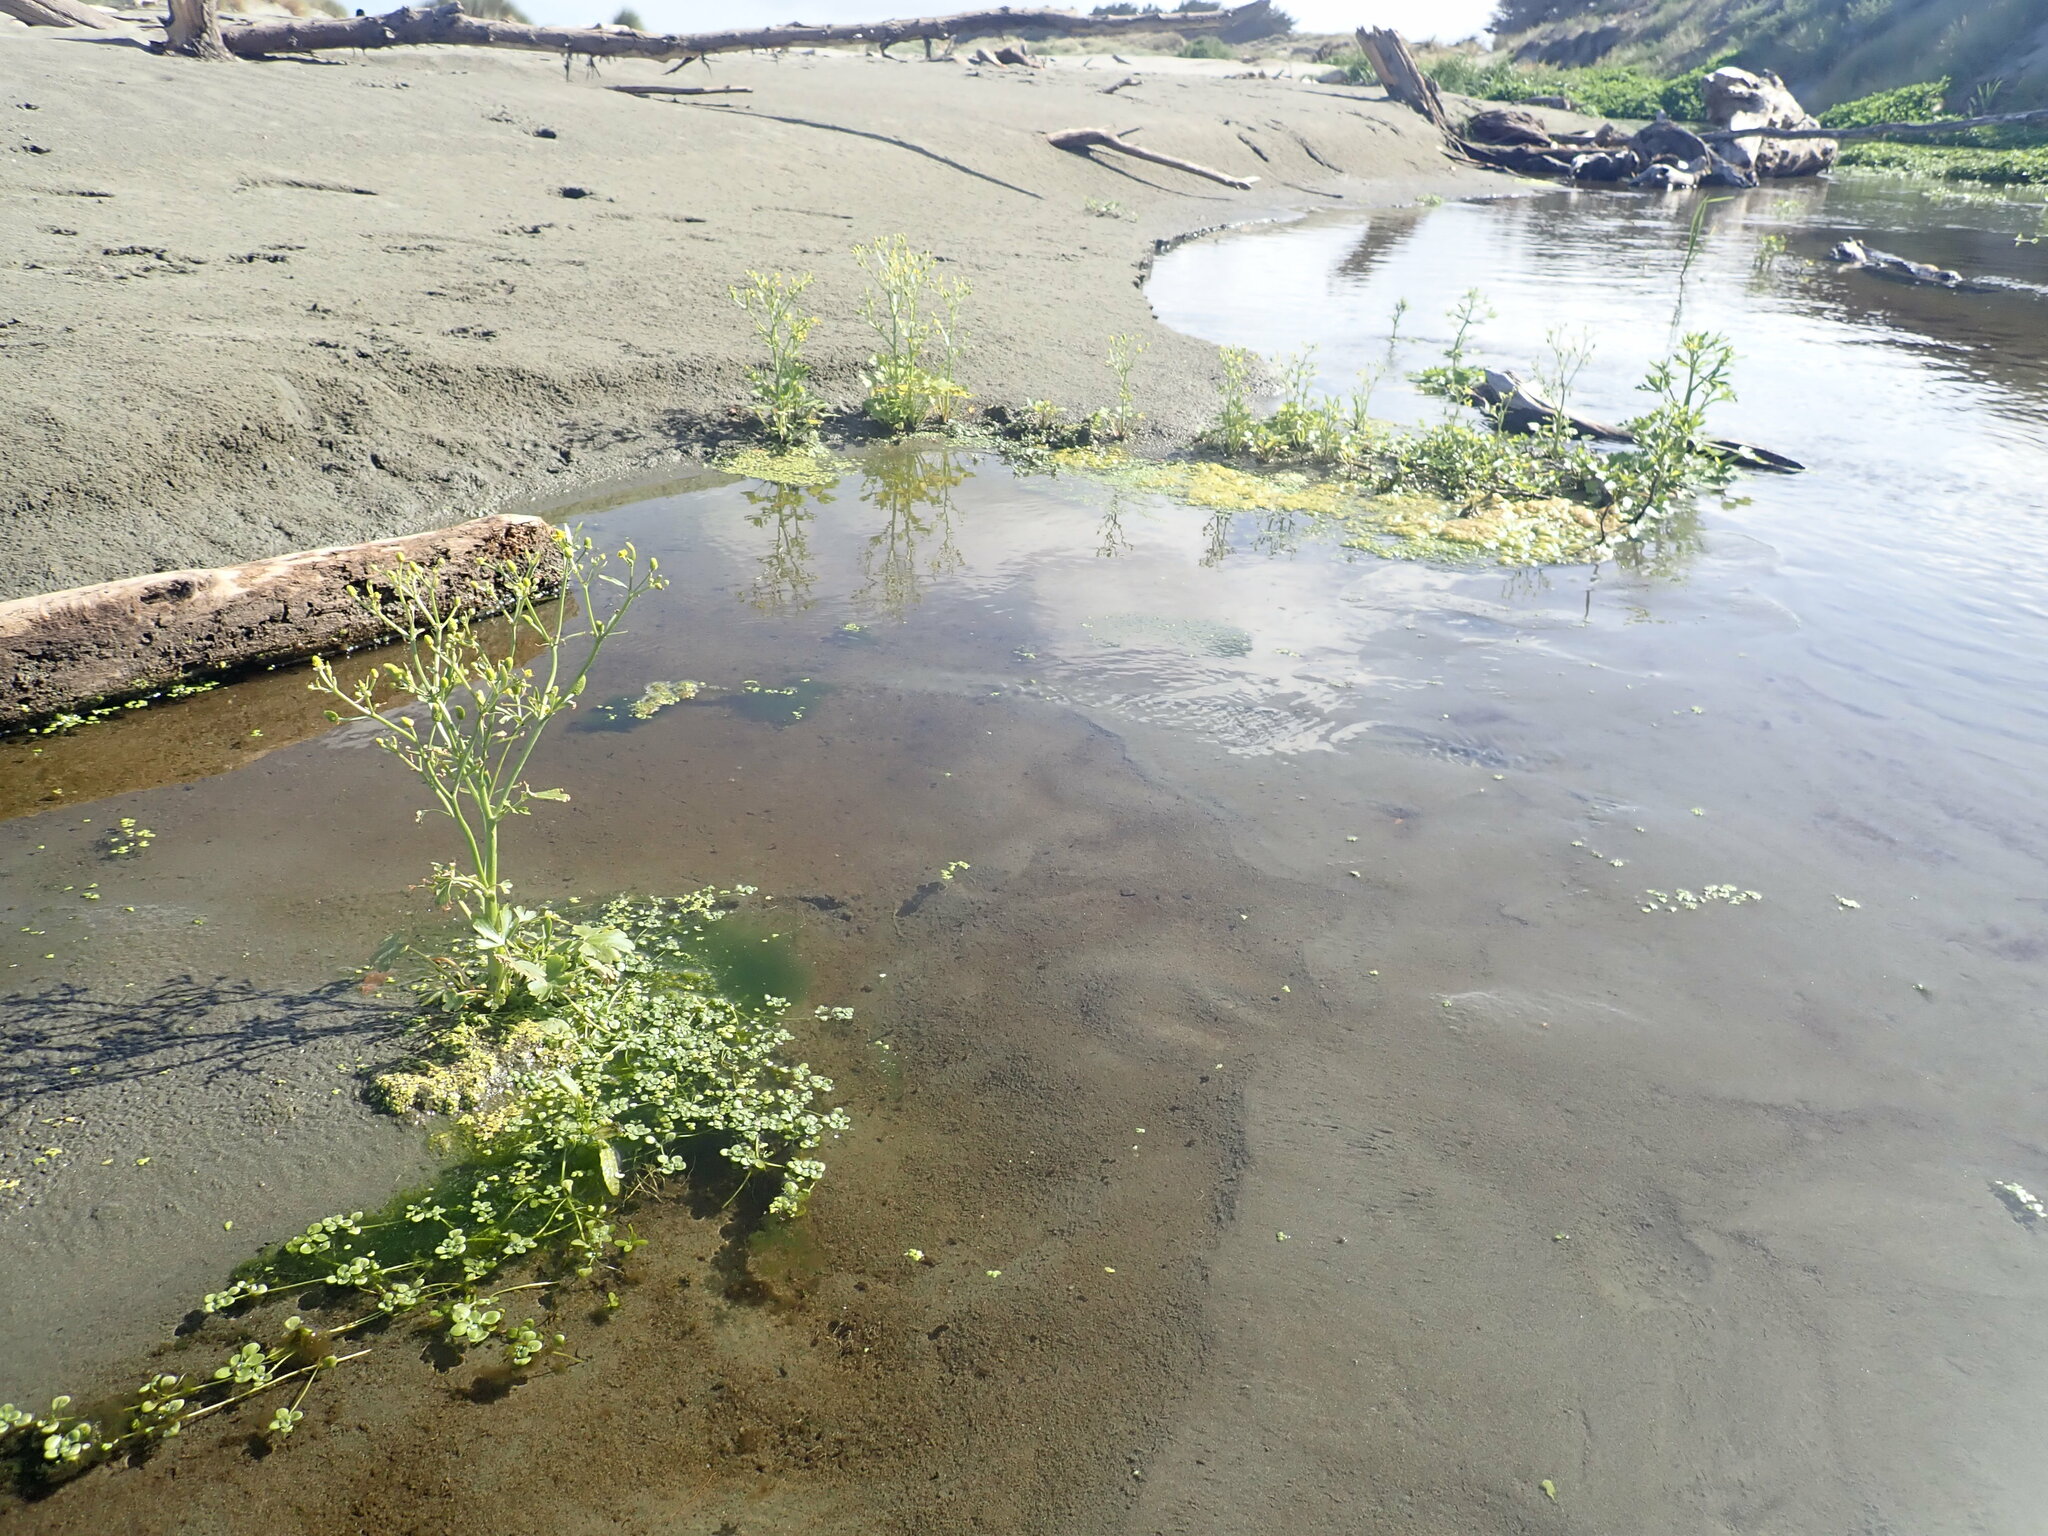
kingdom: Plantae
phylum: Tracheophyta
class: Magnoliopsida
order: Ranunculales
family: Ranunculaceae
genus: Ranunculus
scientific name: Ranunculus sceleratus
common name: Celery-leaved buttercup
